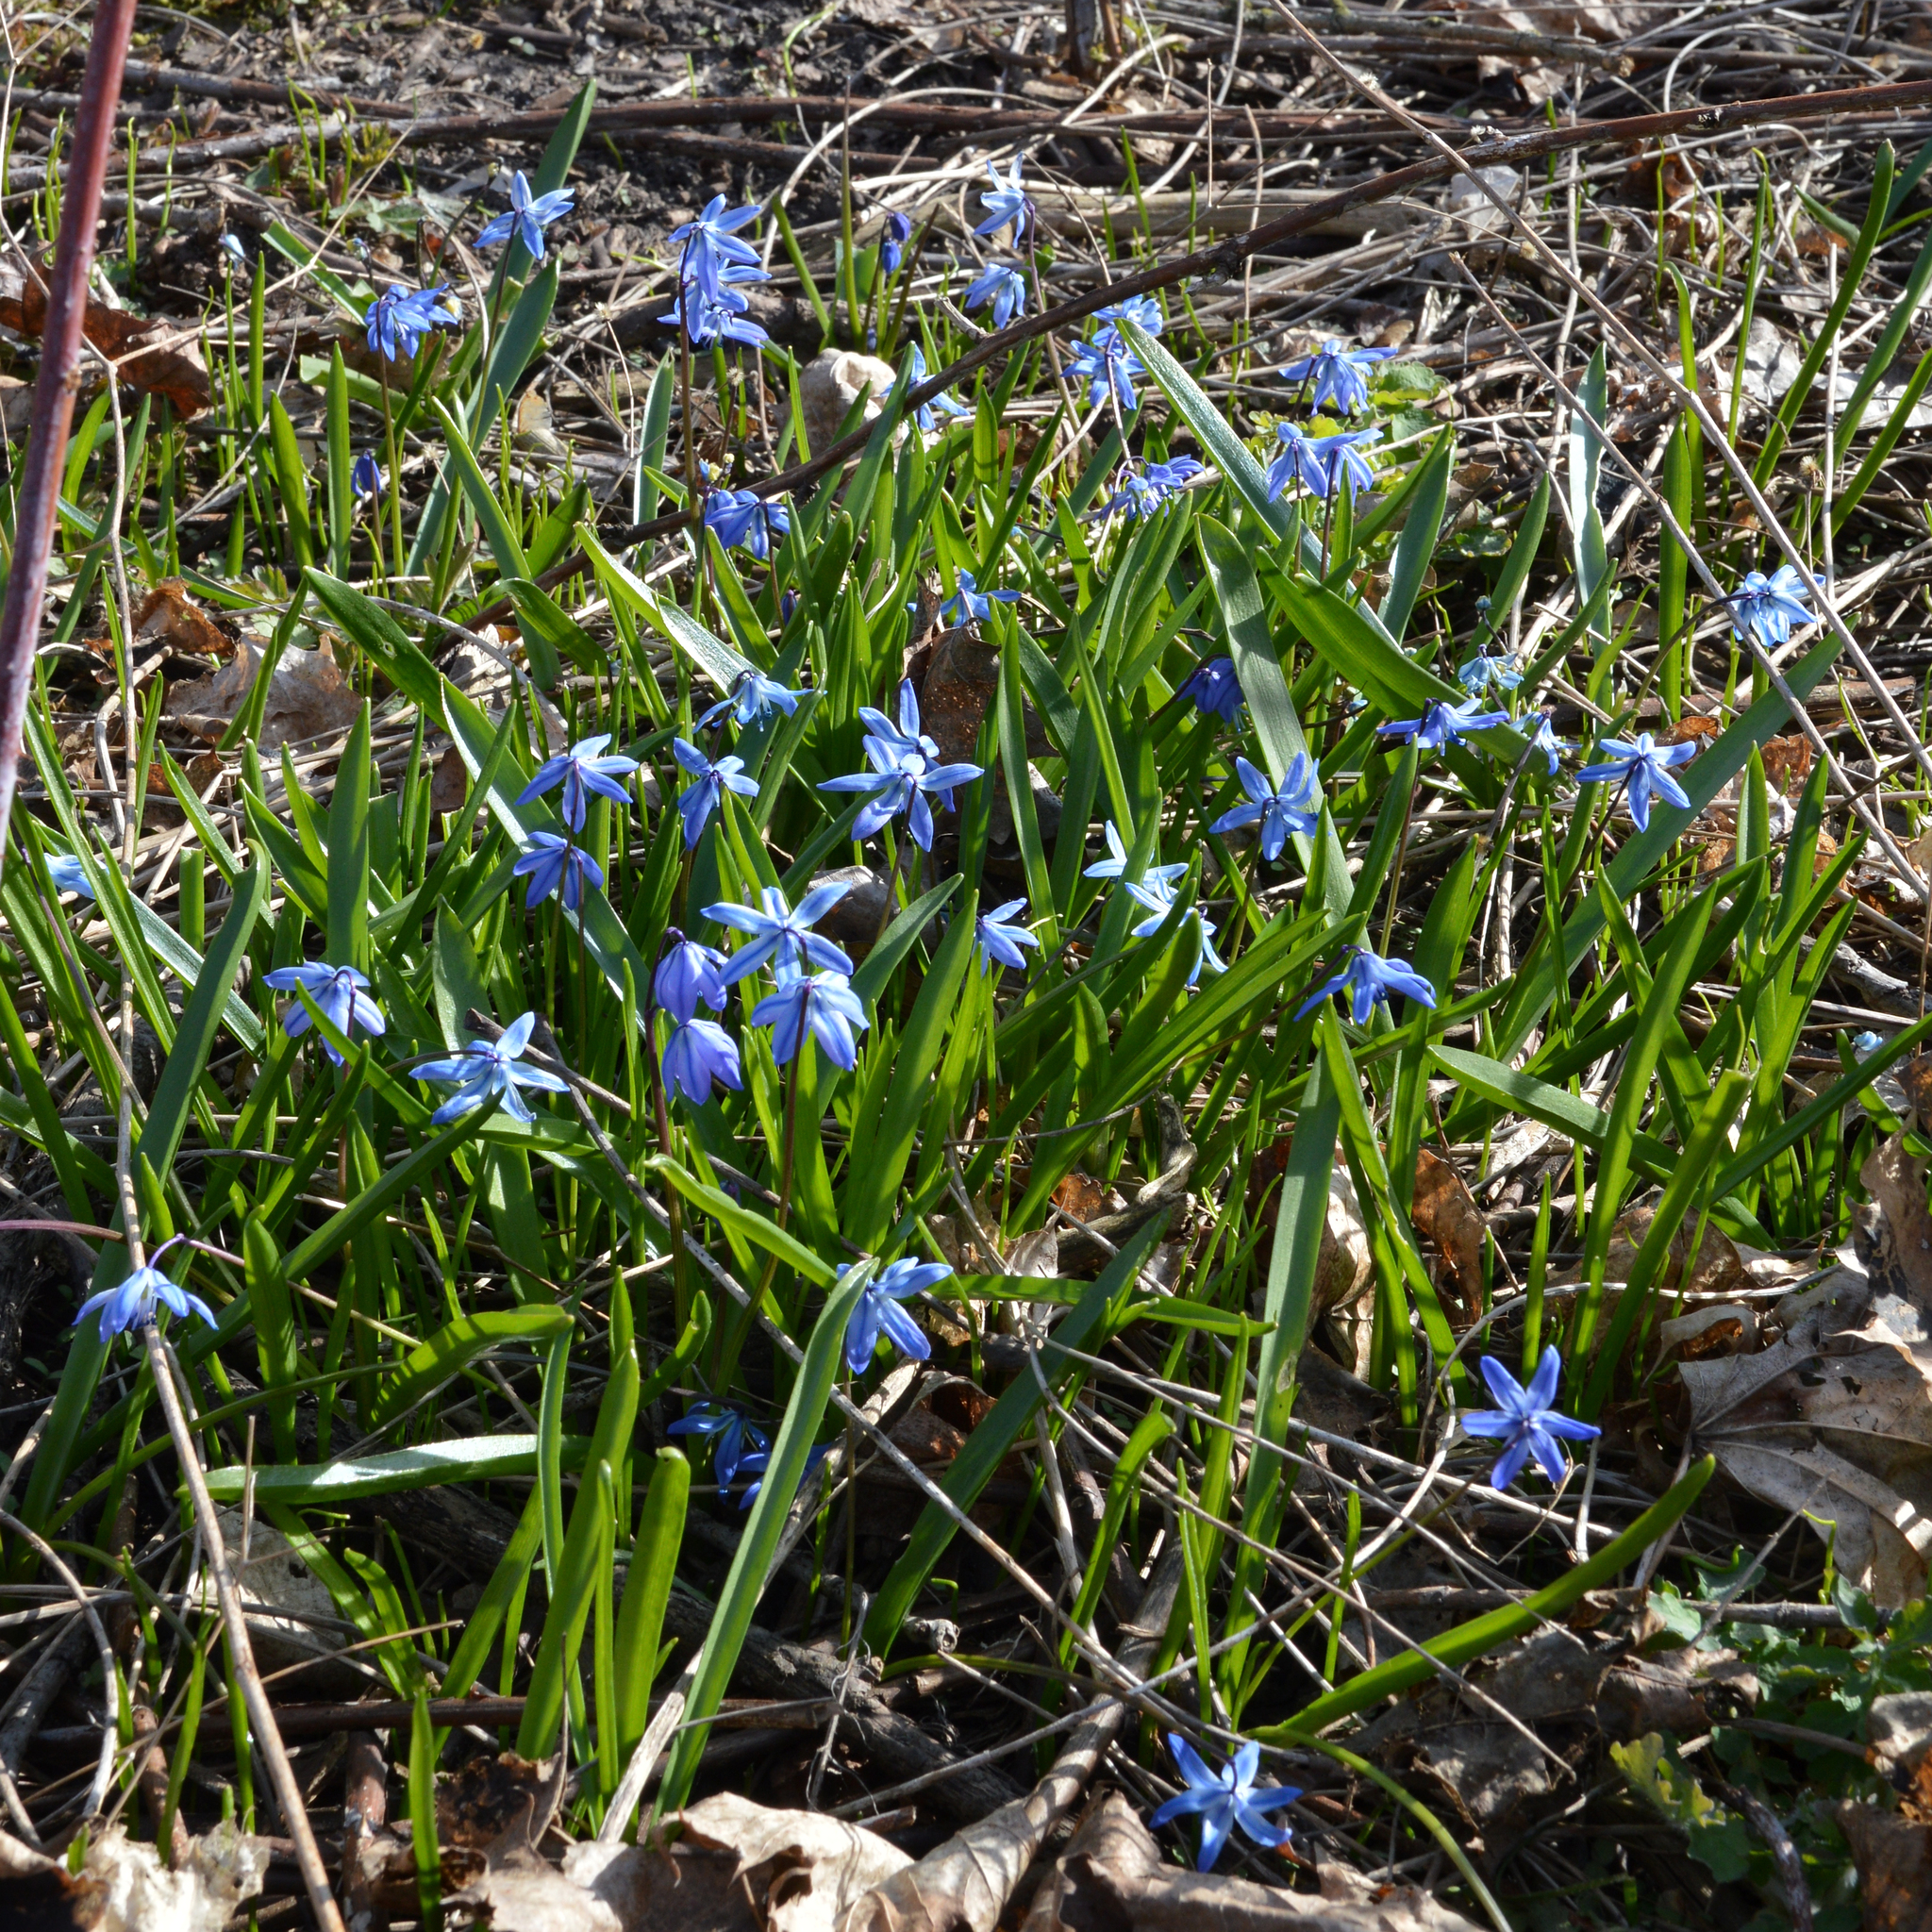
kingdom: Plantae
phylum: Tracheophyta
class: Liliopsida
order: Asparagales
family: Asparagaceae
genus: Scilla
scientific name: Scilla siberica
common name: Siberian squill
